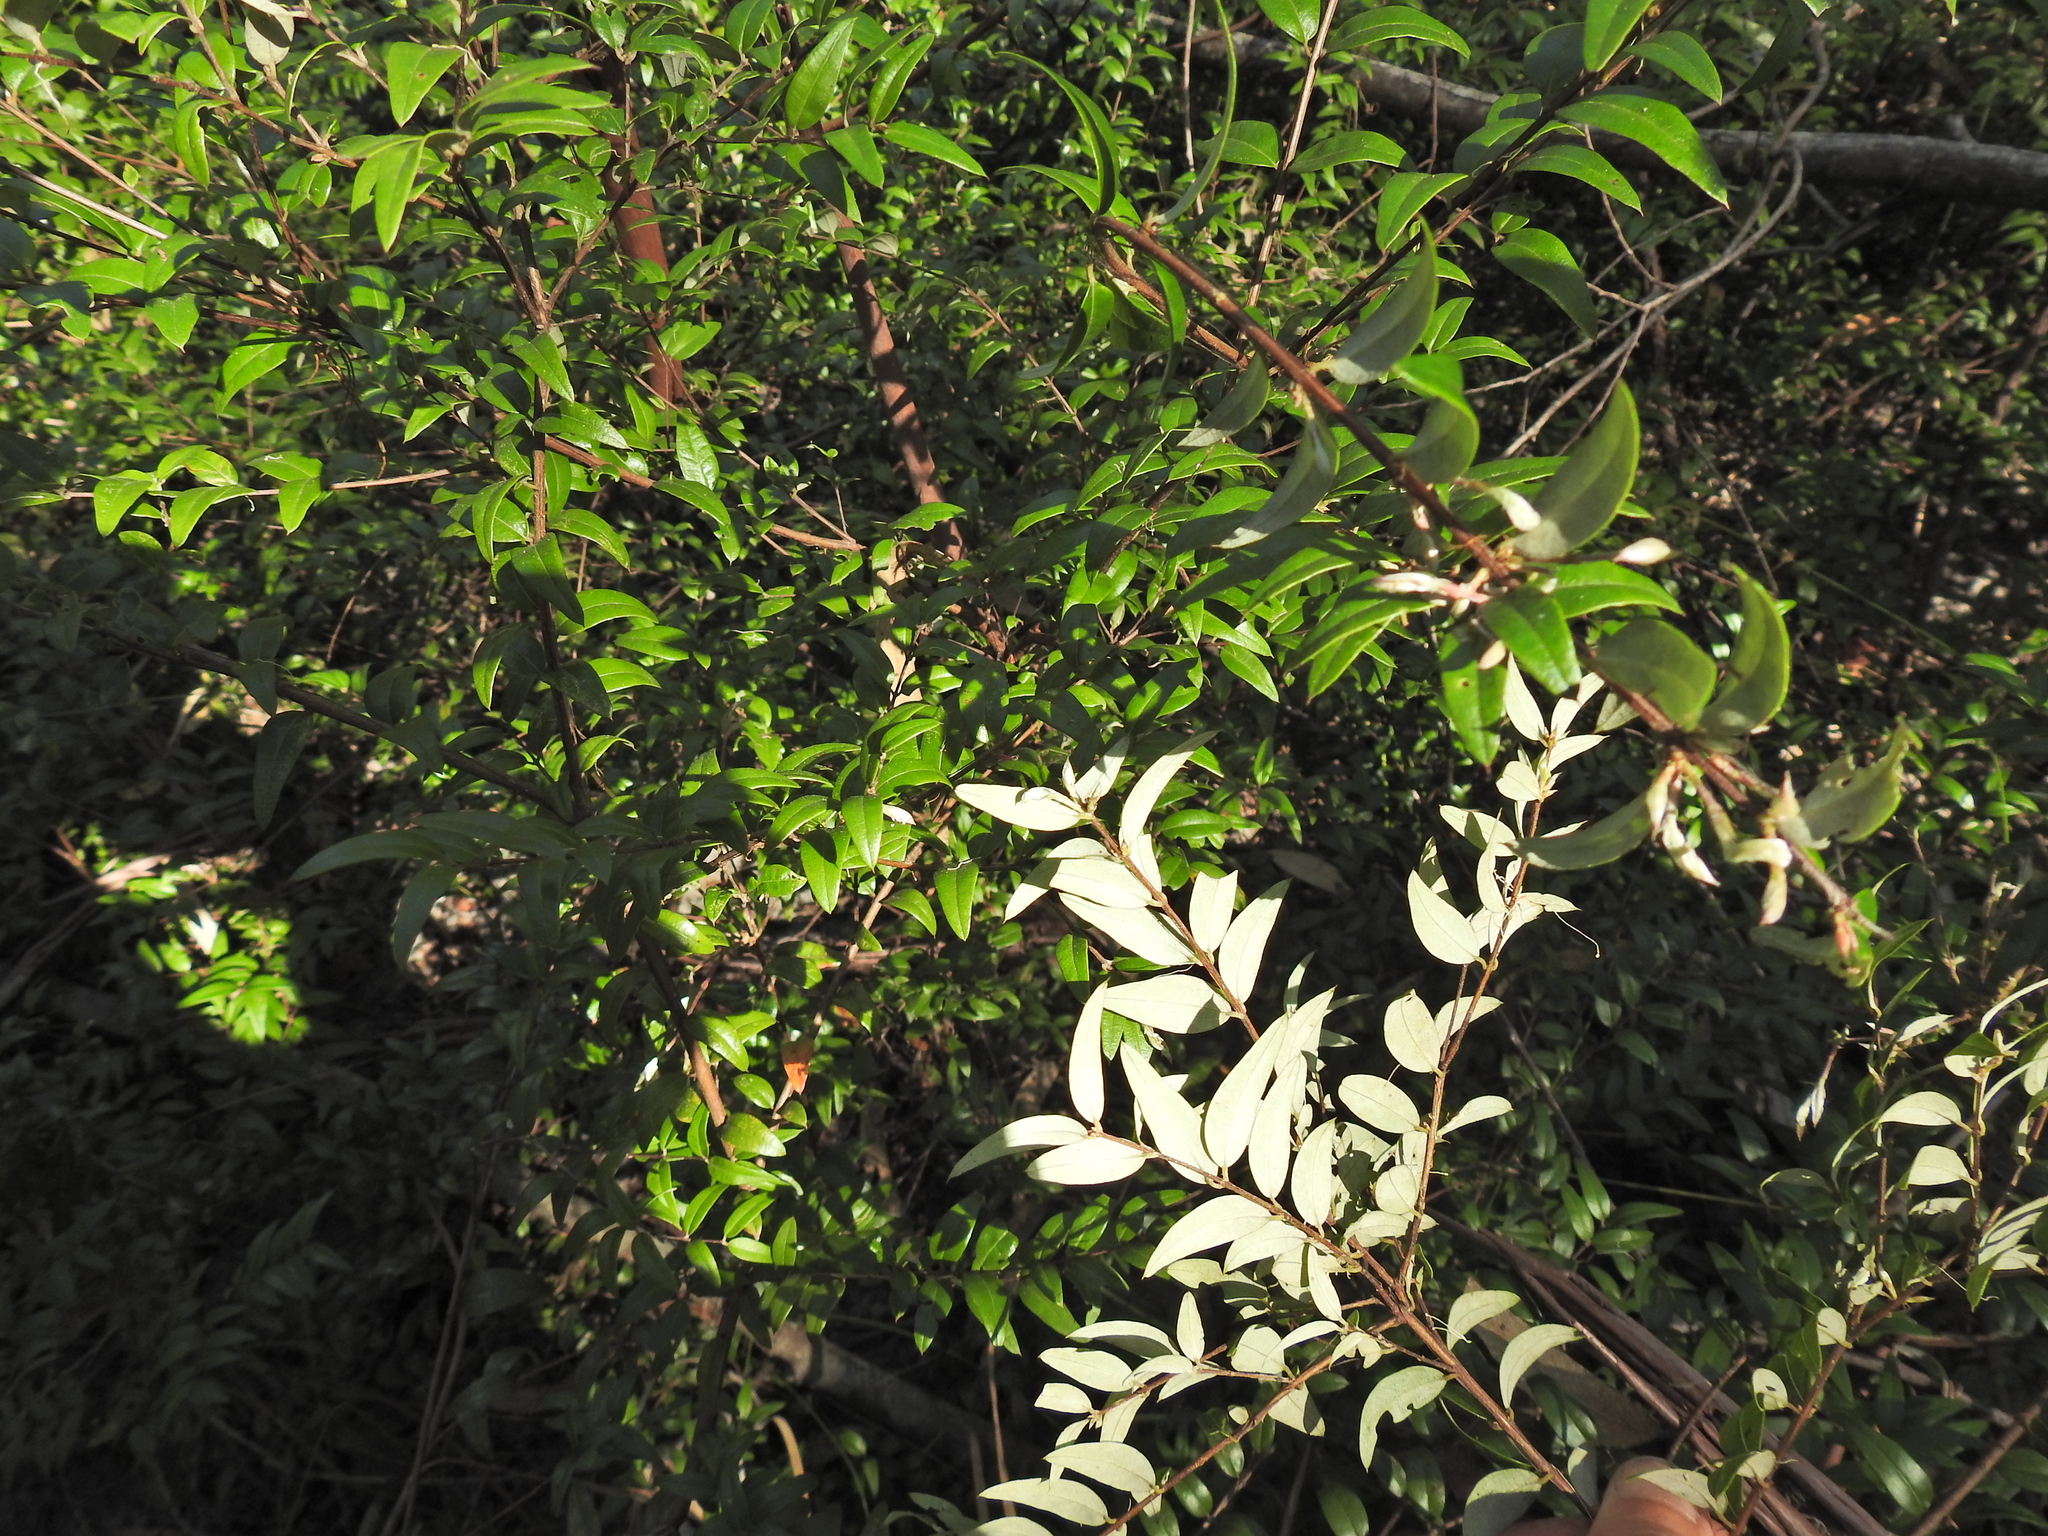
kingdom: Plantae
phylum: Tracheophyta
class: Magnoliopsida
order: Myrtales
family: Myrtaceae
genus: Austromyrtus
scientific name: Austromyrtus dulcis
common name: Migden-berry
